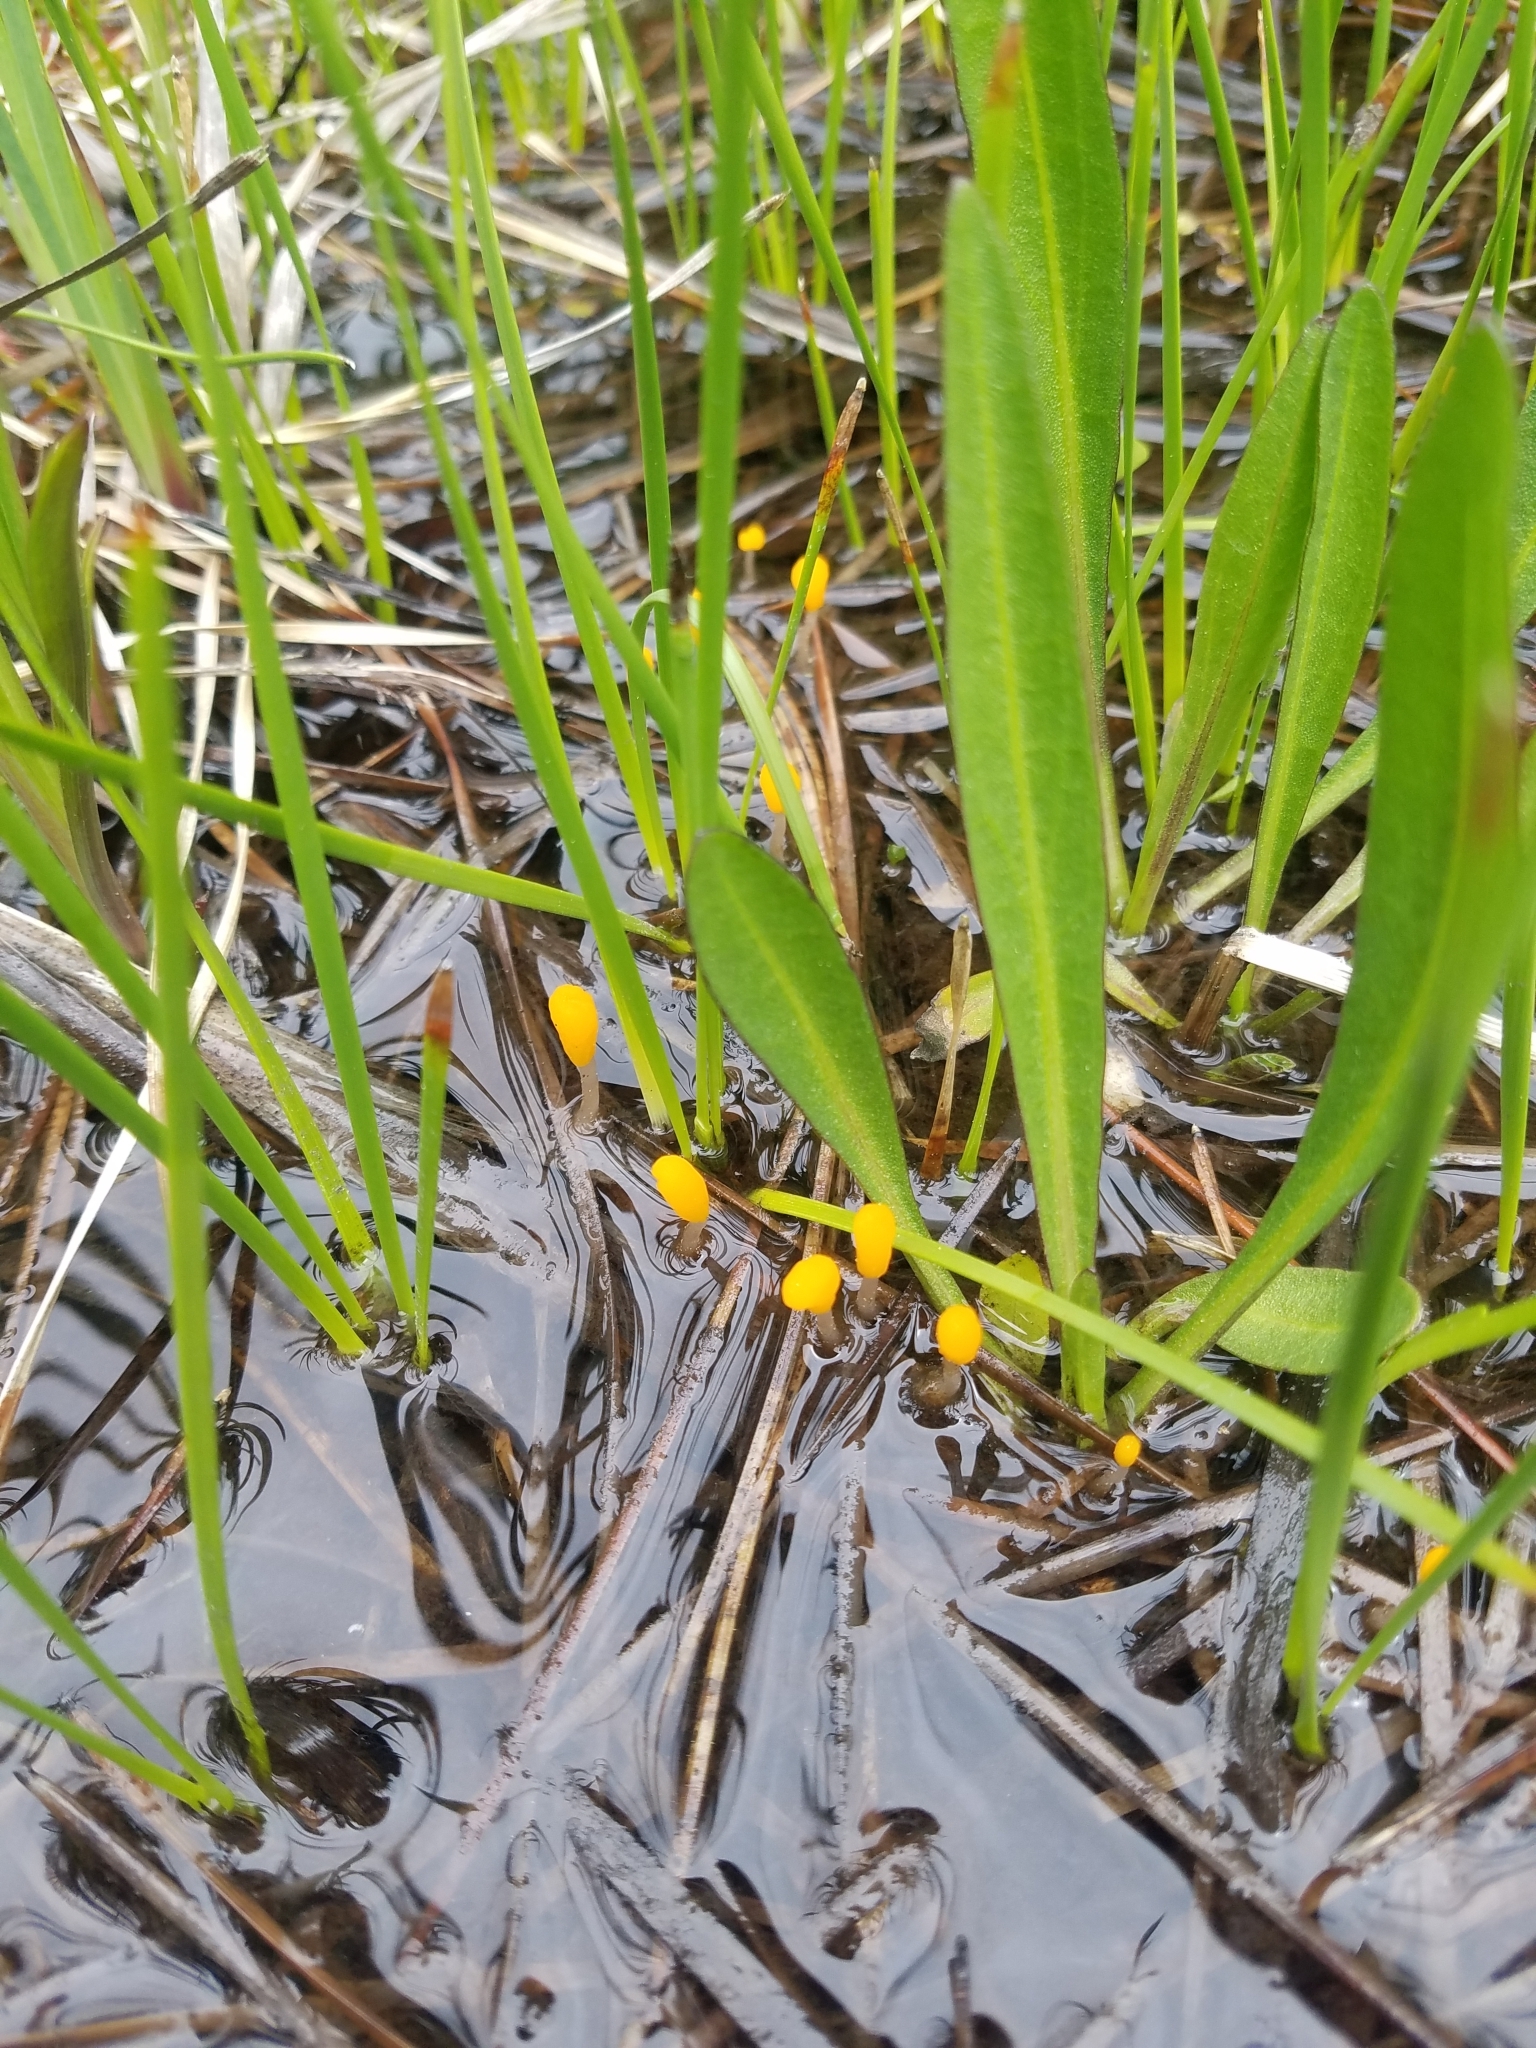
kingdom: Fungi
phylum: Ascomycota
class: Leotiomycetes
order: Helotiales
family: Sclerotiniaceae
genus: Mitrula
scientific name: Mitrula elegans
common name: Swamp beacon
